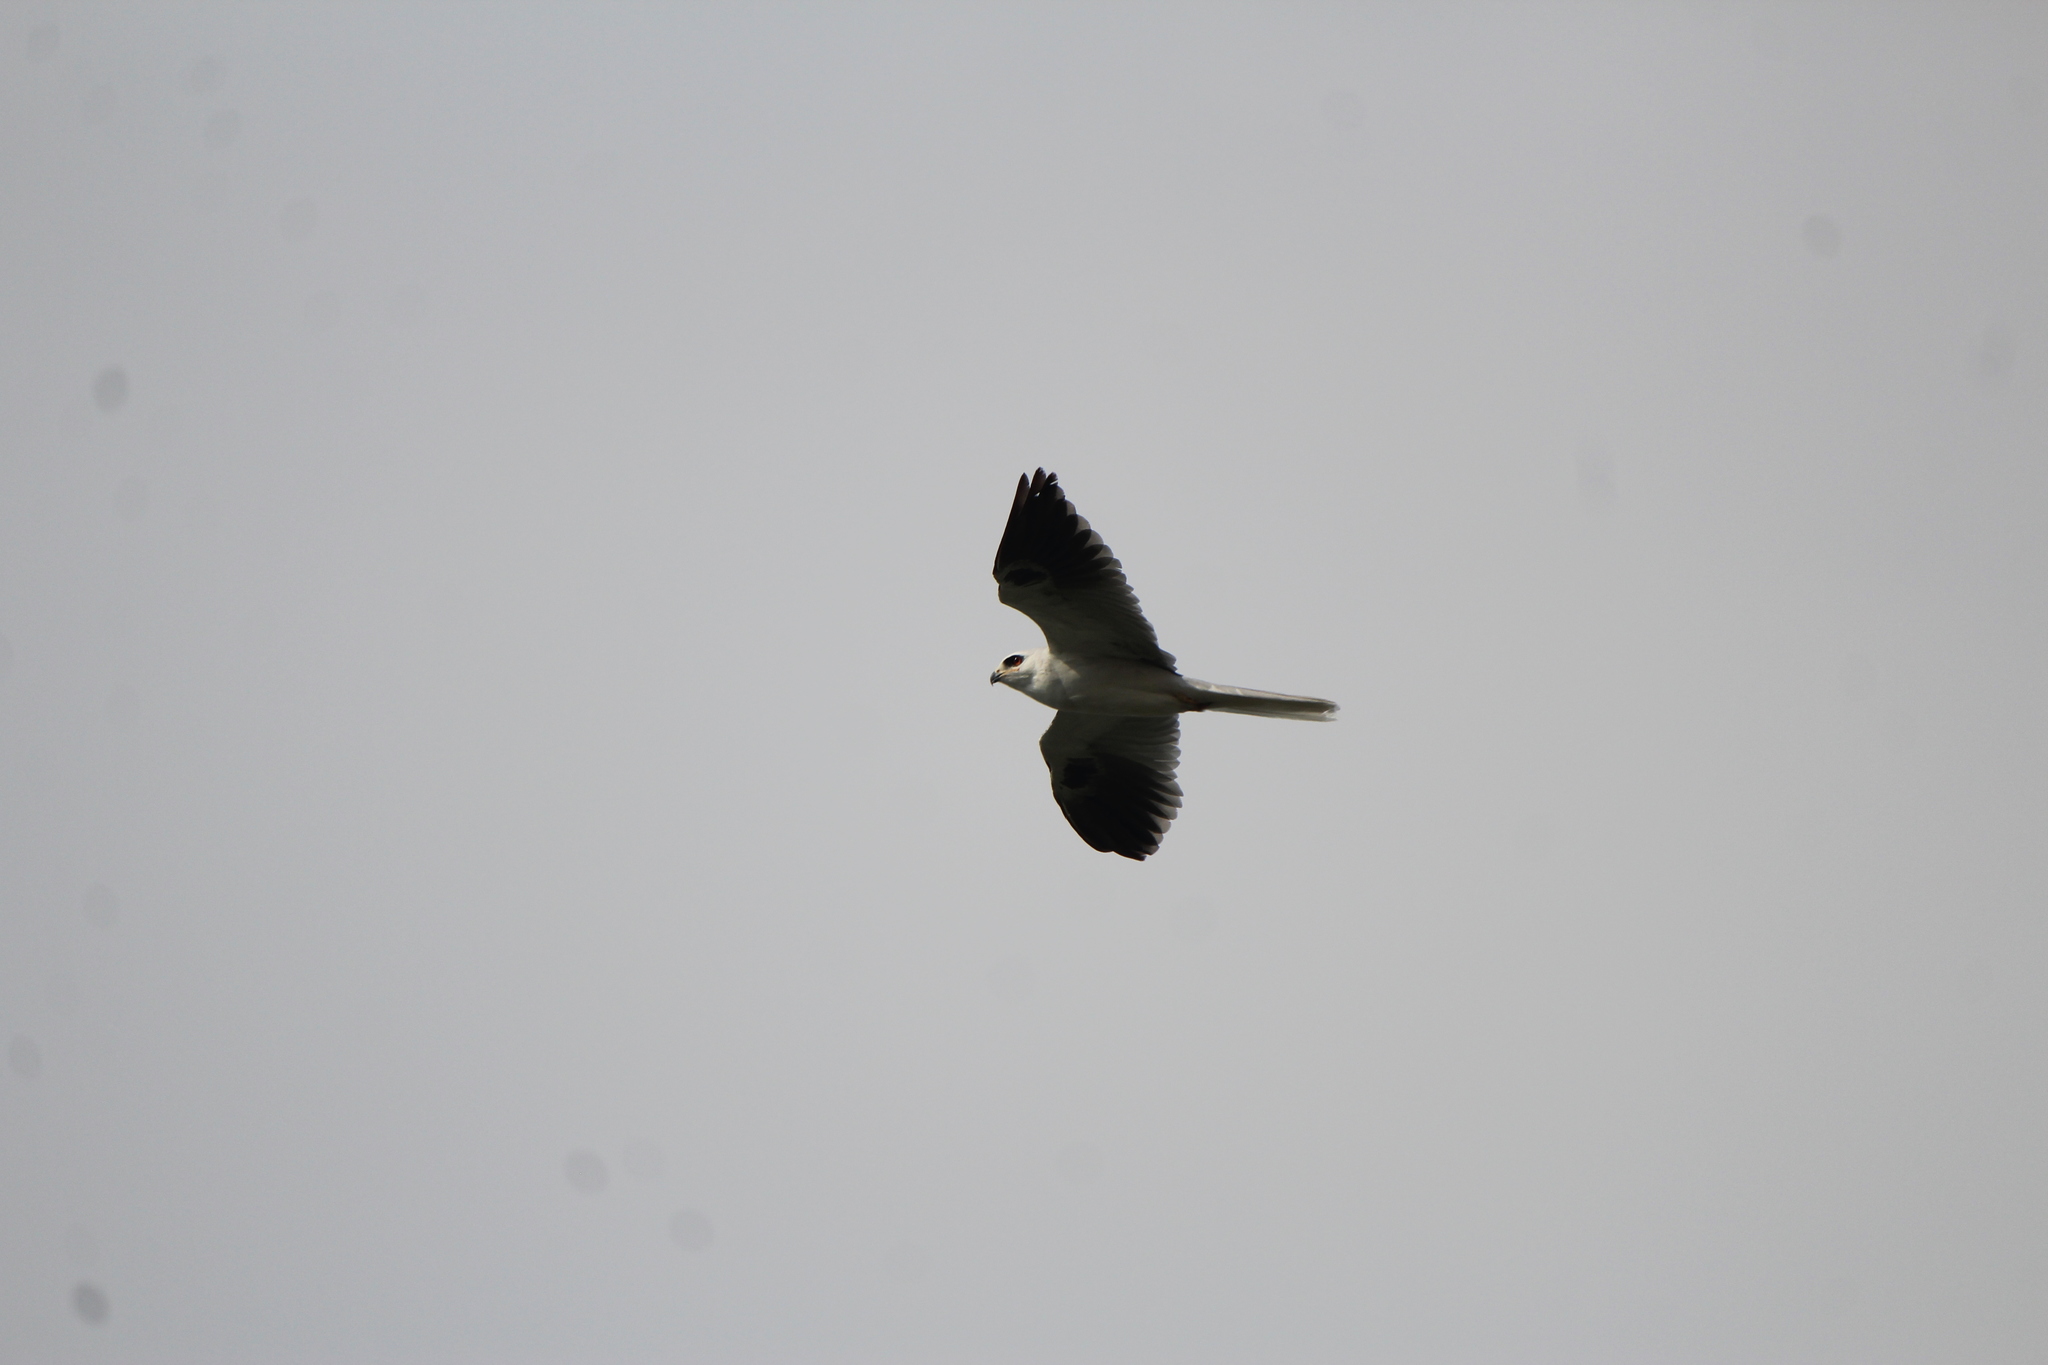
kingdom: Animalia
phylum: Chordata
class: Aves
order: Accipitriformes
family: Accipitridae
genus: Elanus
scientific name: Elanus leucurus
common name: White-tailed kite
